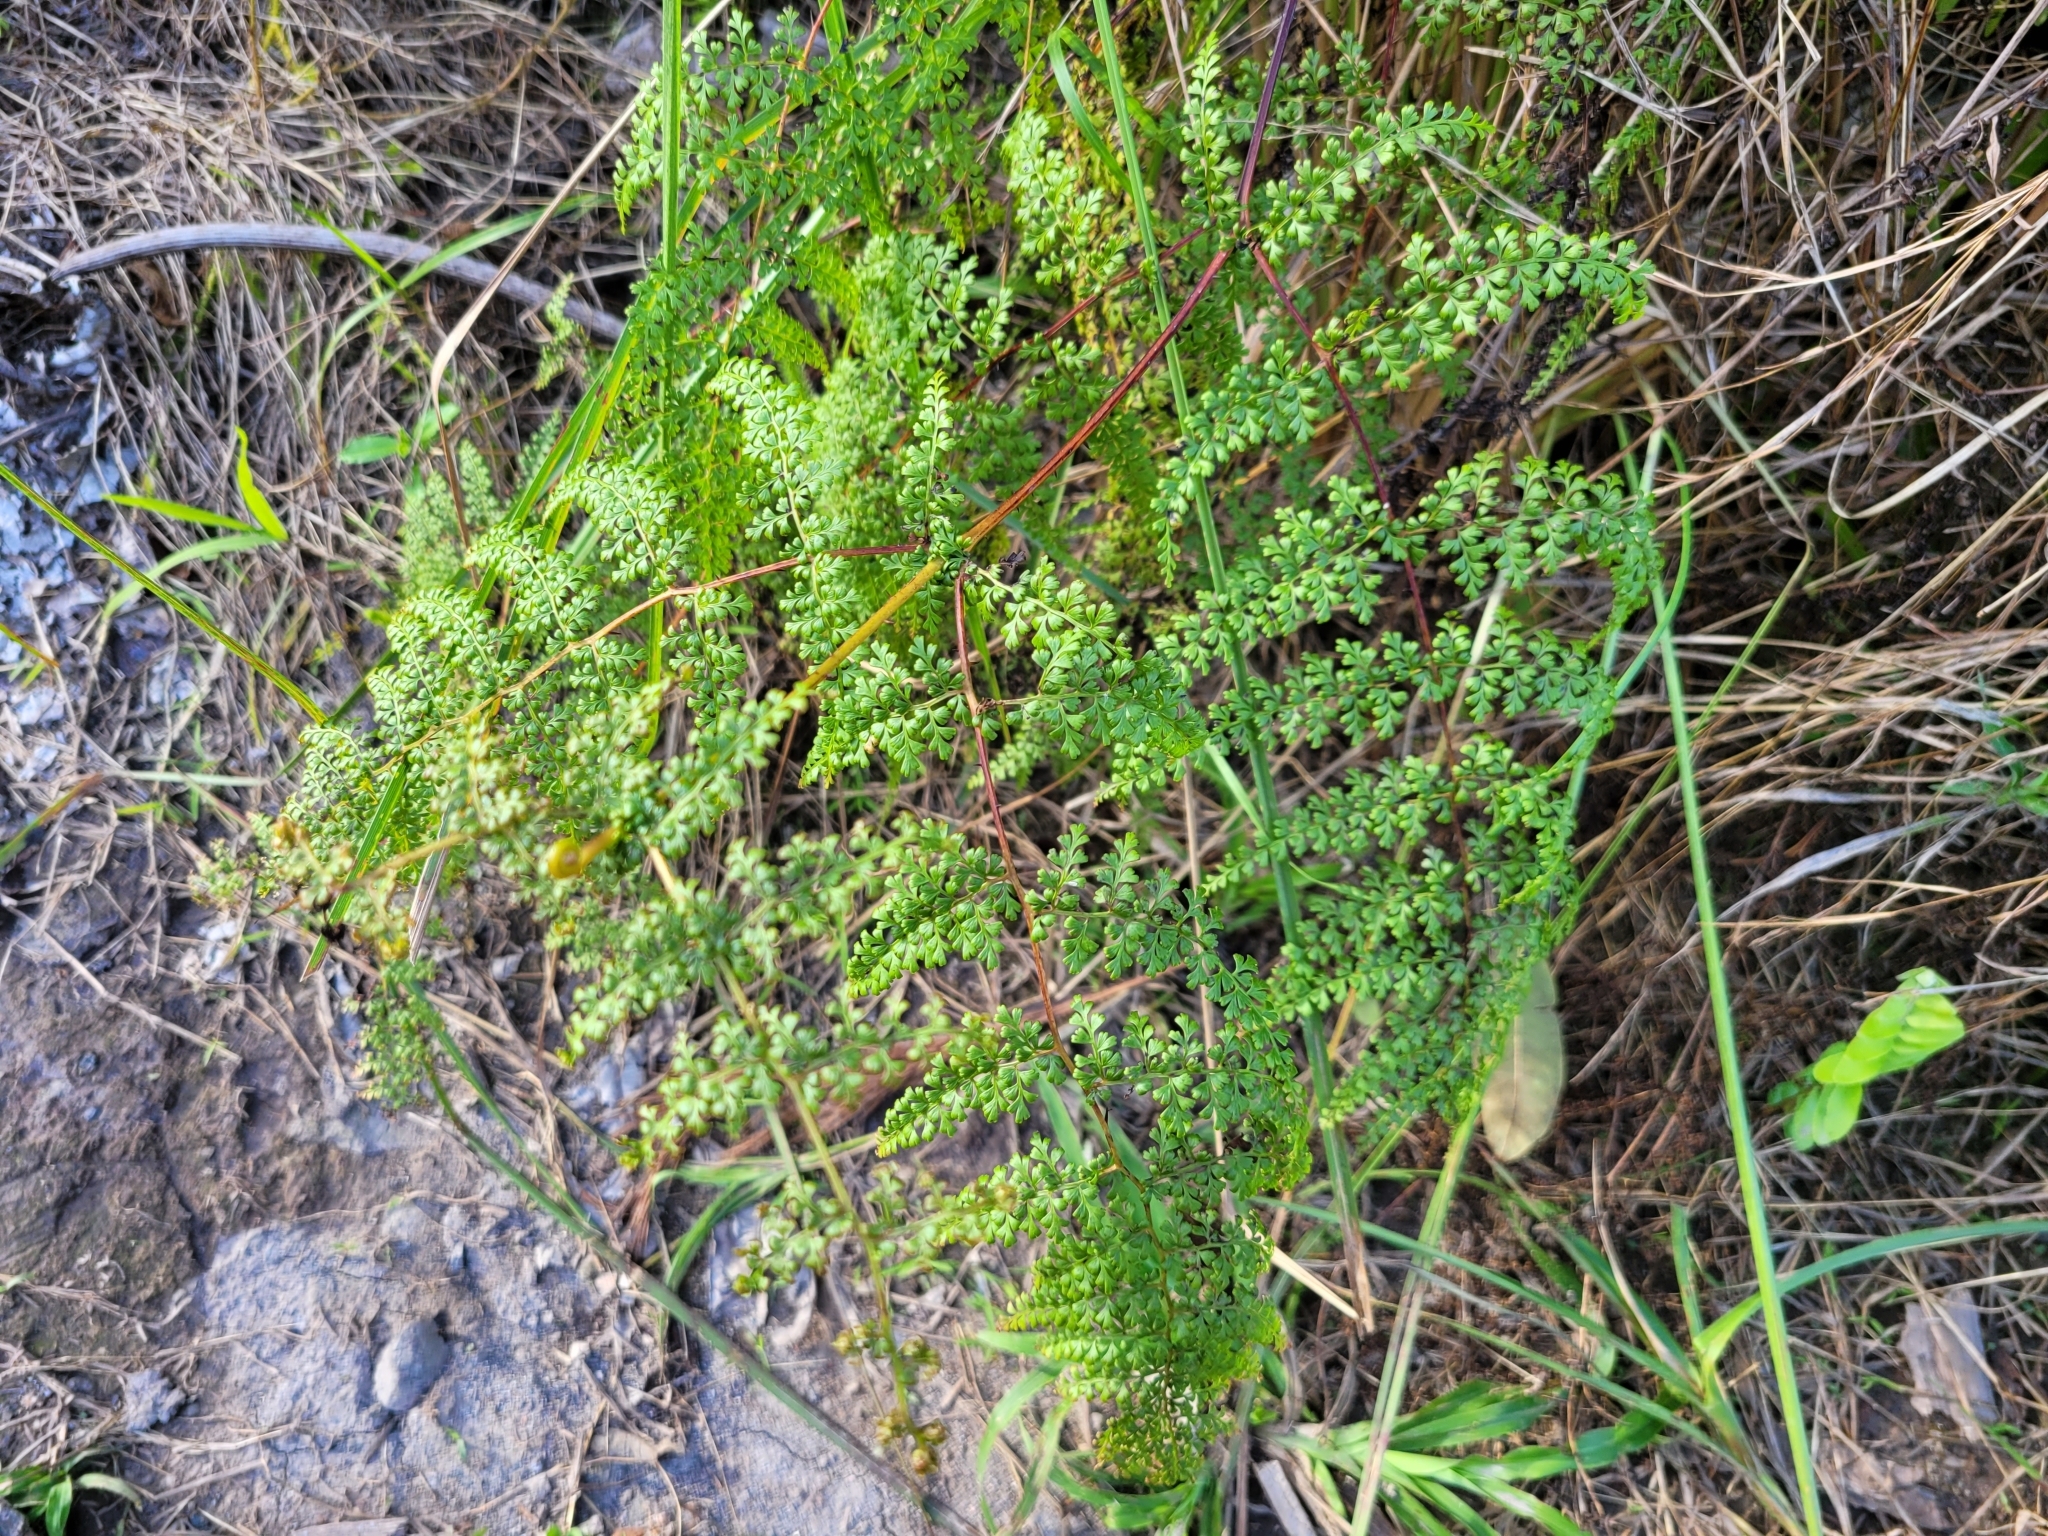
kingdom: Plantae
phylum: Tracheophyta
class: Polypodiopsida
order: Polypodiales
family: Lindsaeaceae
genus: Odontosoria
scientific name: Odontosoria aculeata
